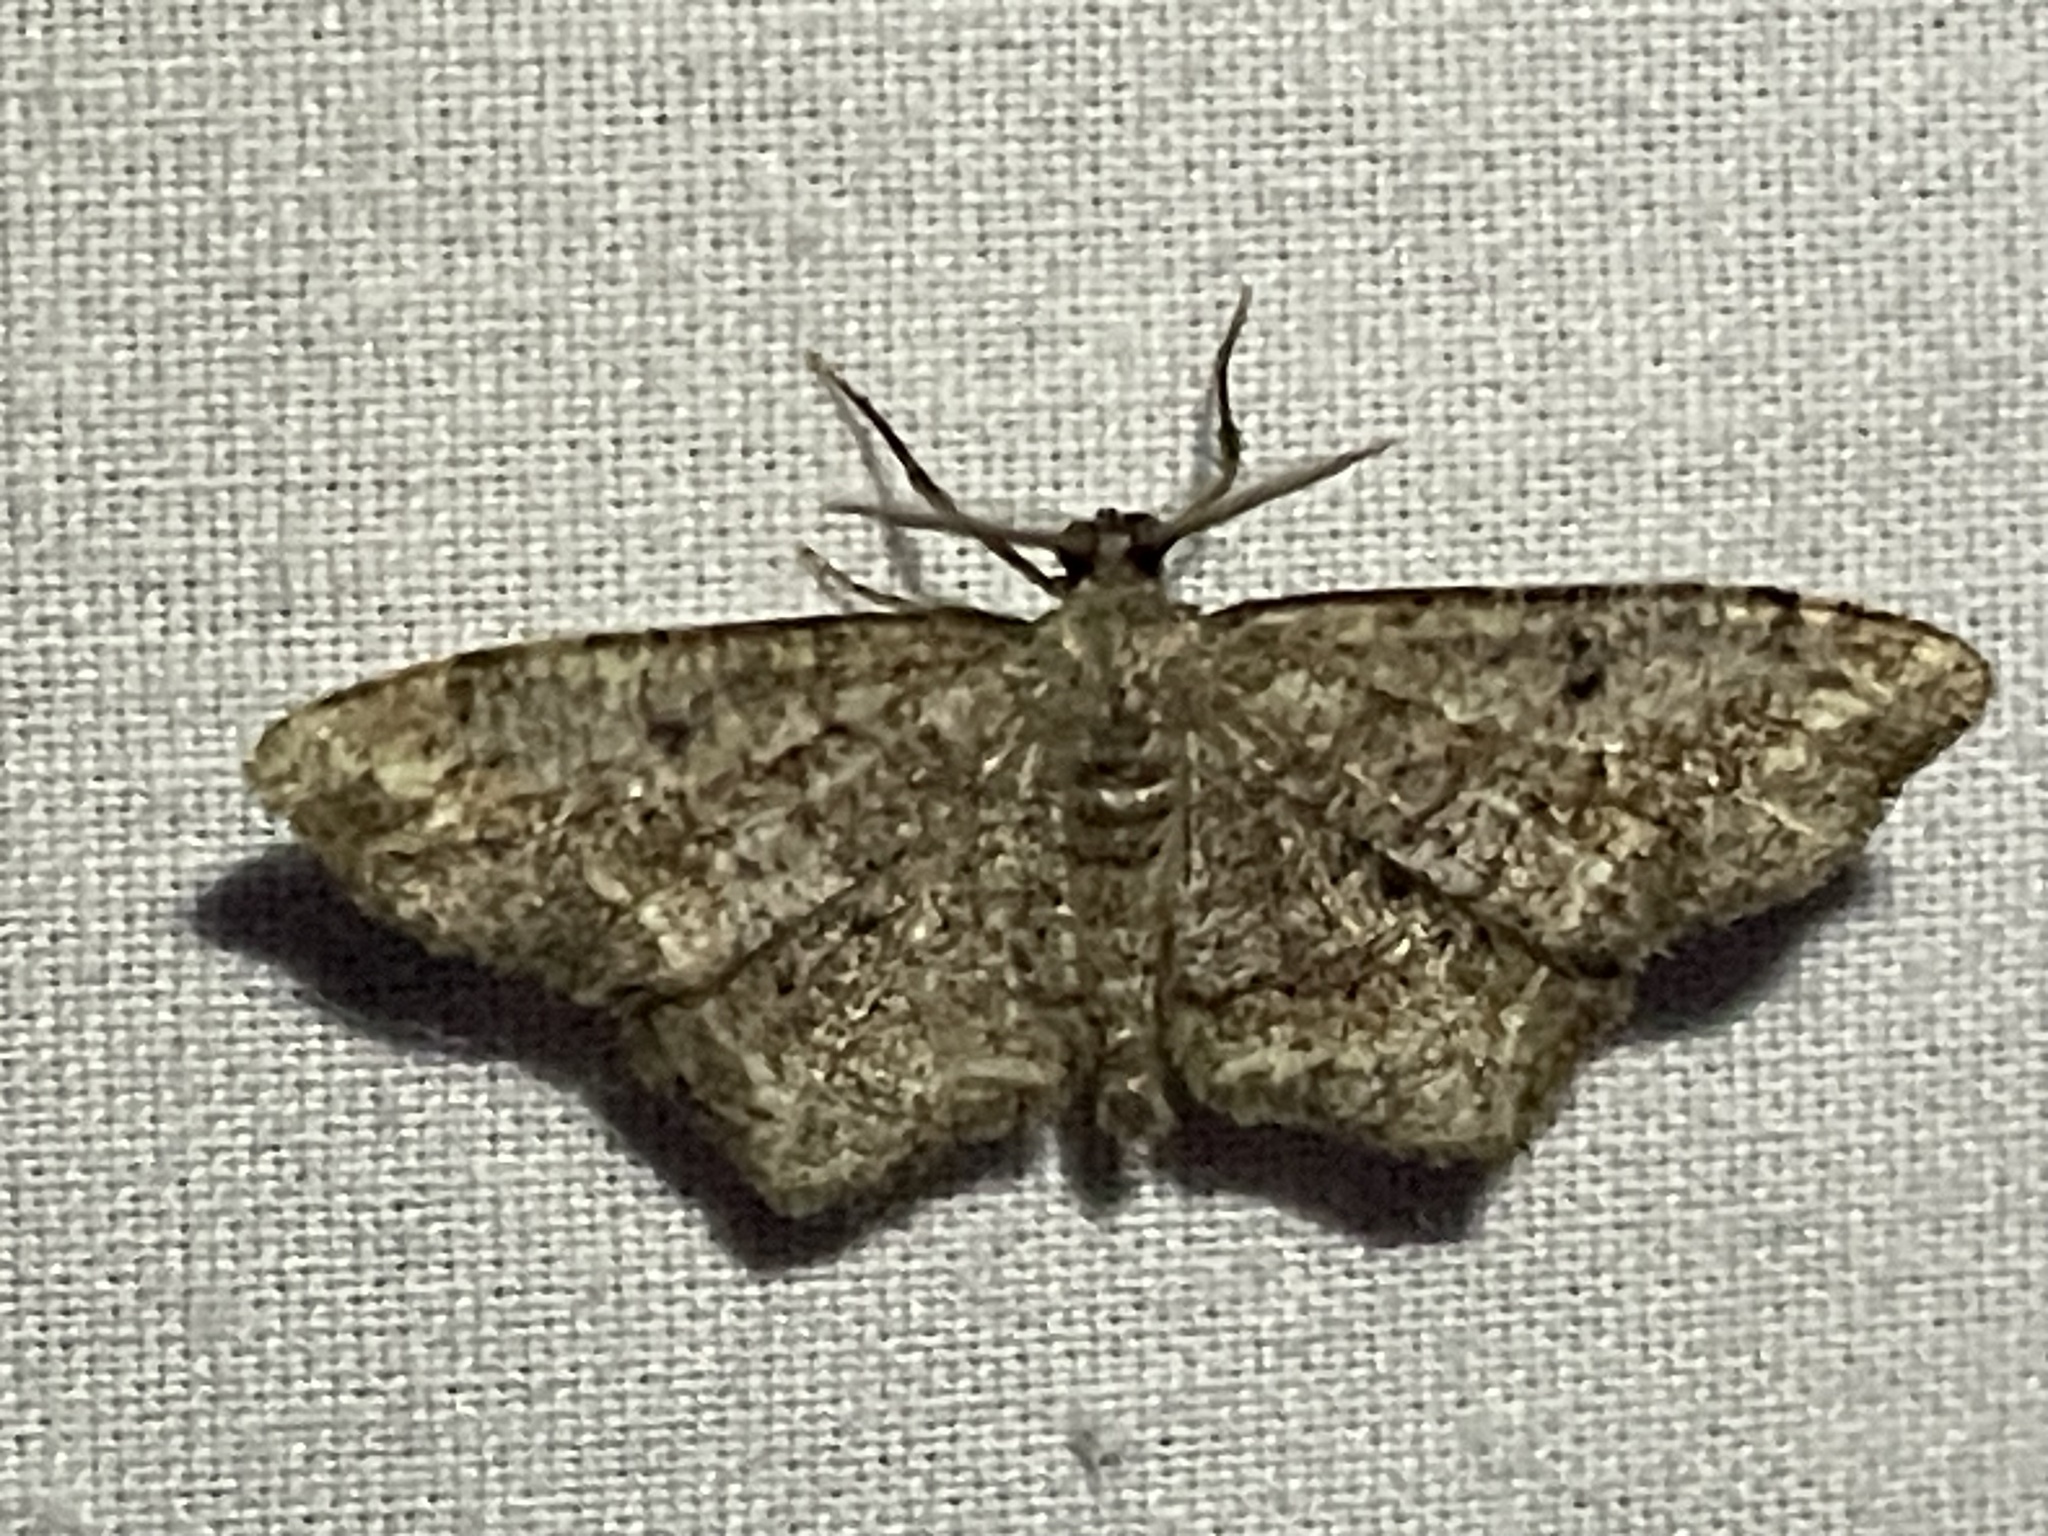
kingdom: Animalia
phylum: Arthropoda
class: Insecta
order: Lepidoptera
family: Geometridae
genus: Hypagyrtis
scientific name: Hypagyrtis unipunctata
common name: One-spotted variant
